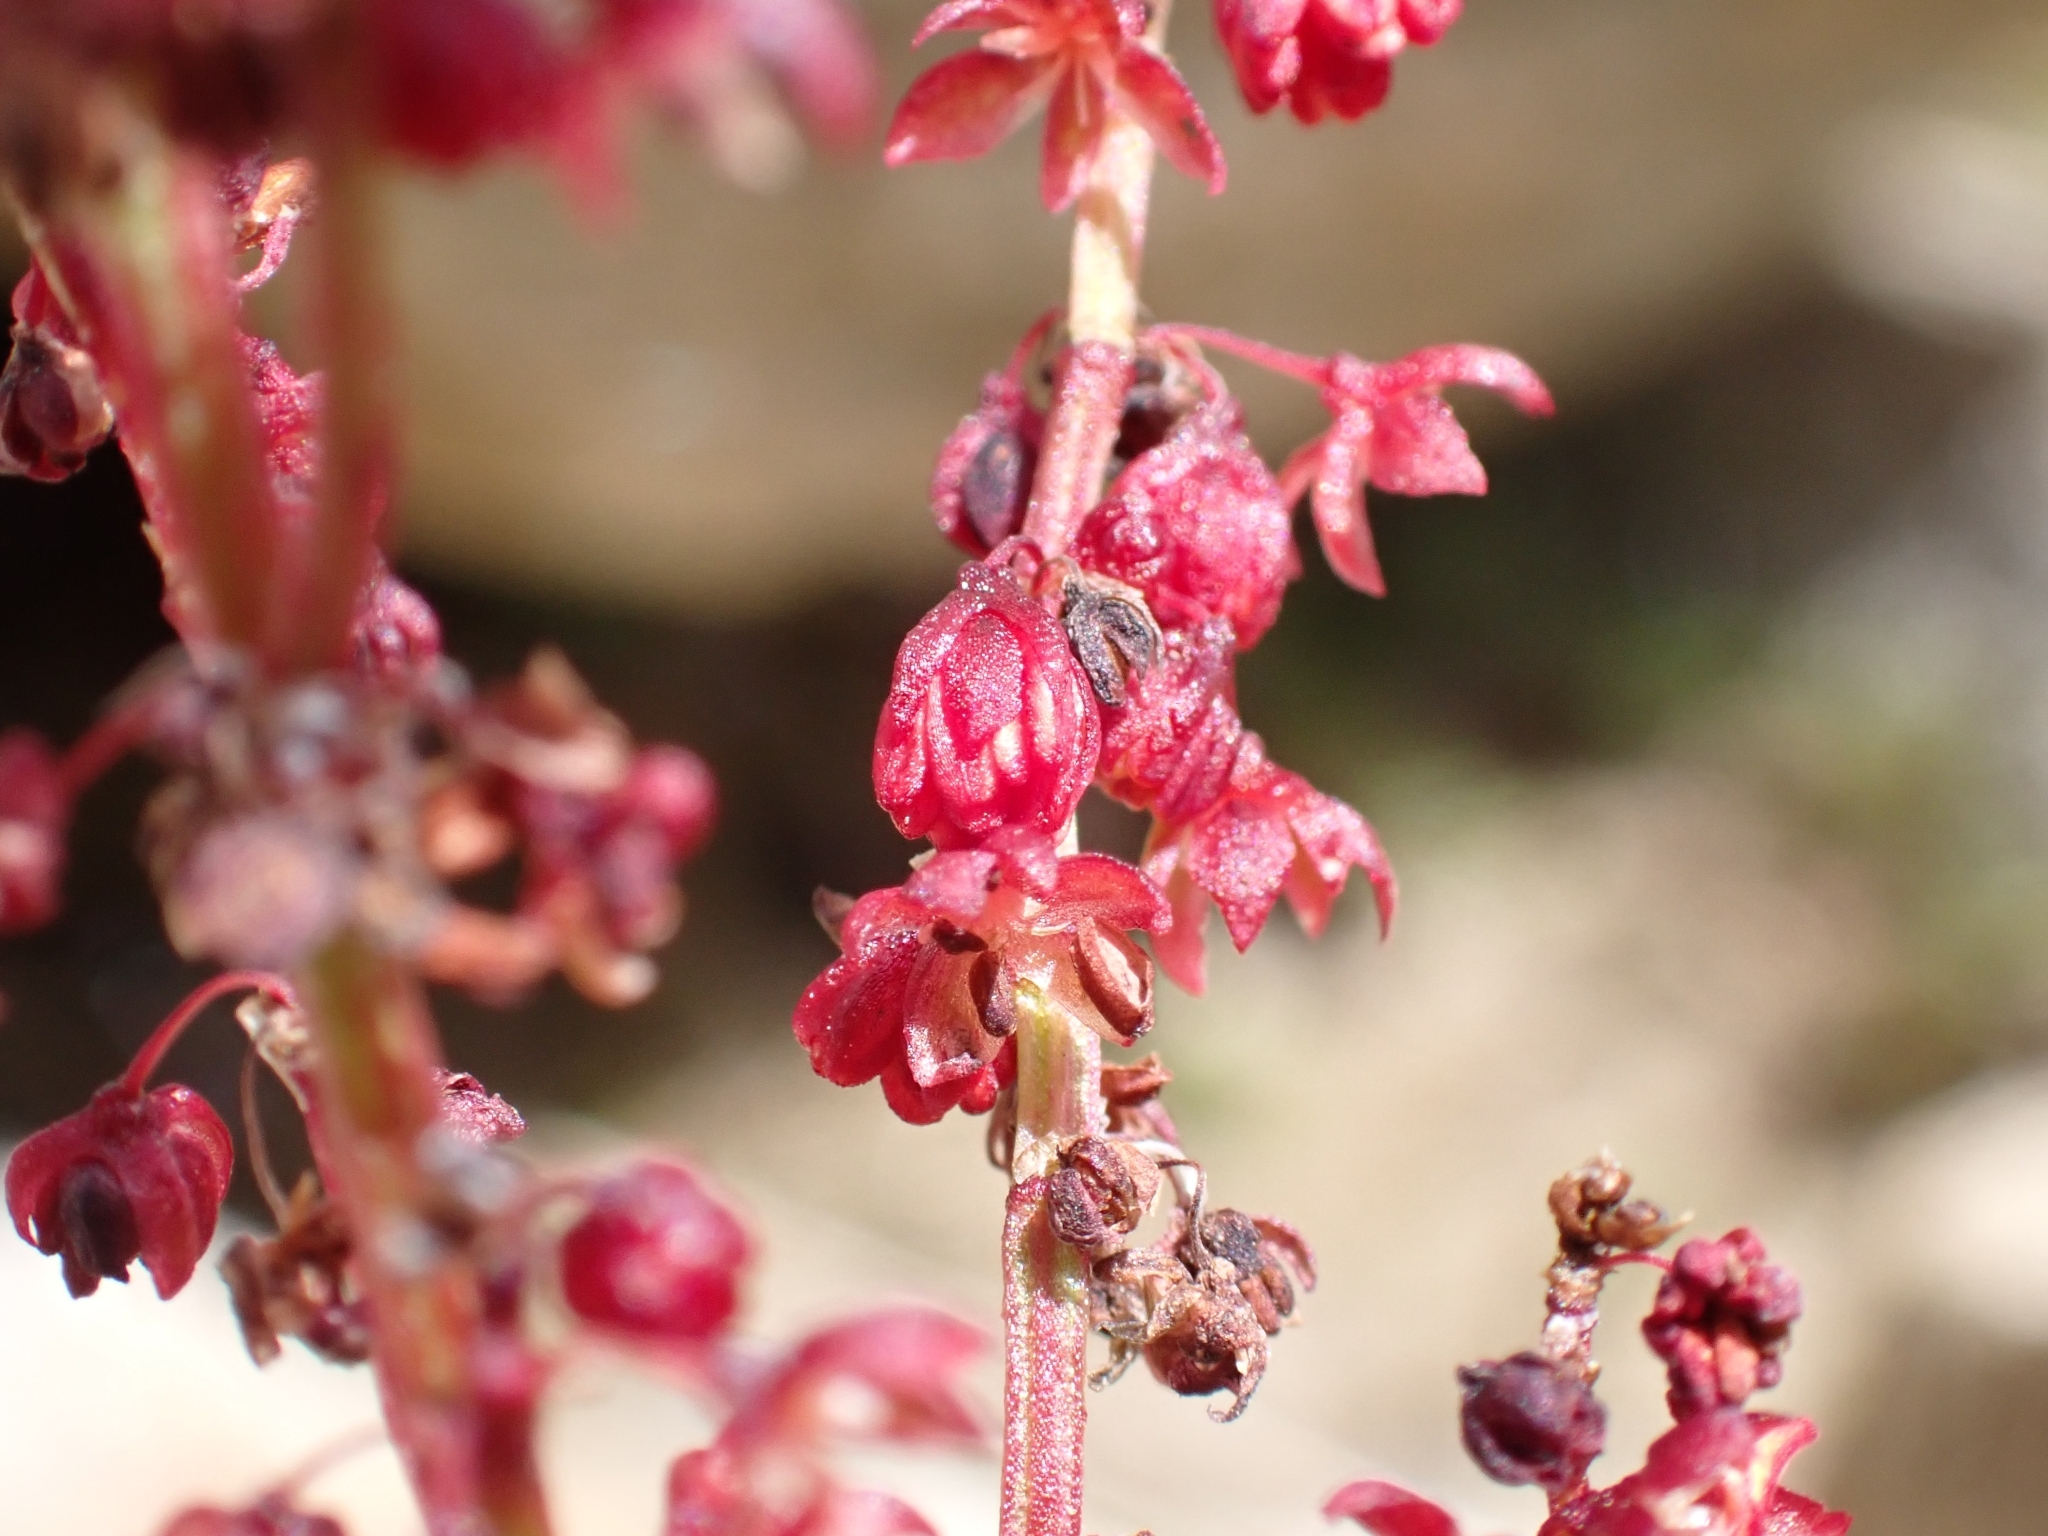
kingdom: Plantae
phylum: Tracheophyta
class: Magnoliopsida
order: Caryophyllales
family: Polygonaceae
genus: Oxyria
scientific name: Oxyria digyna
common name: Alpine mountain-sorrel
